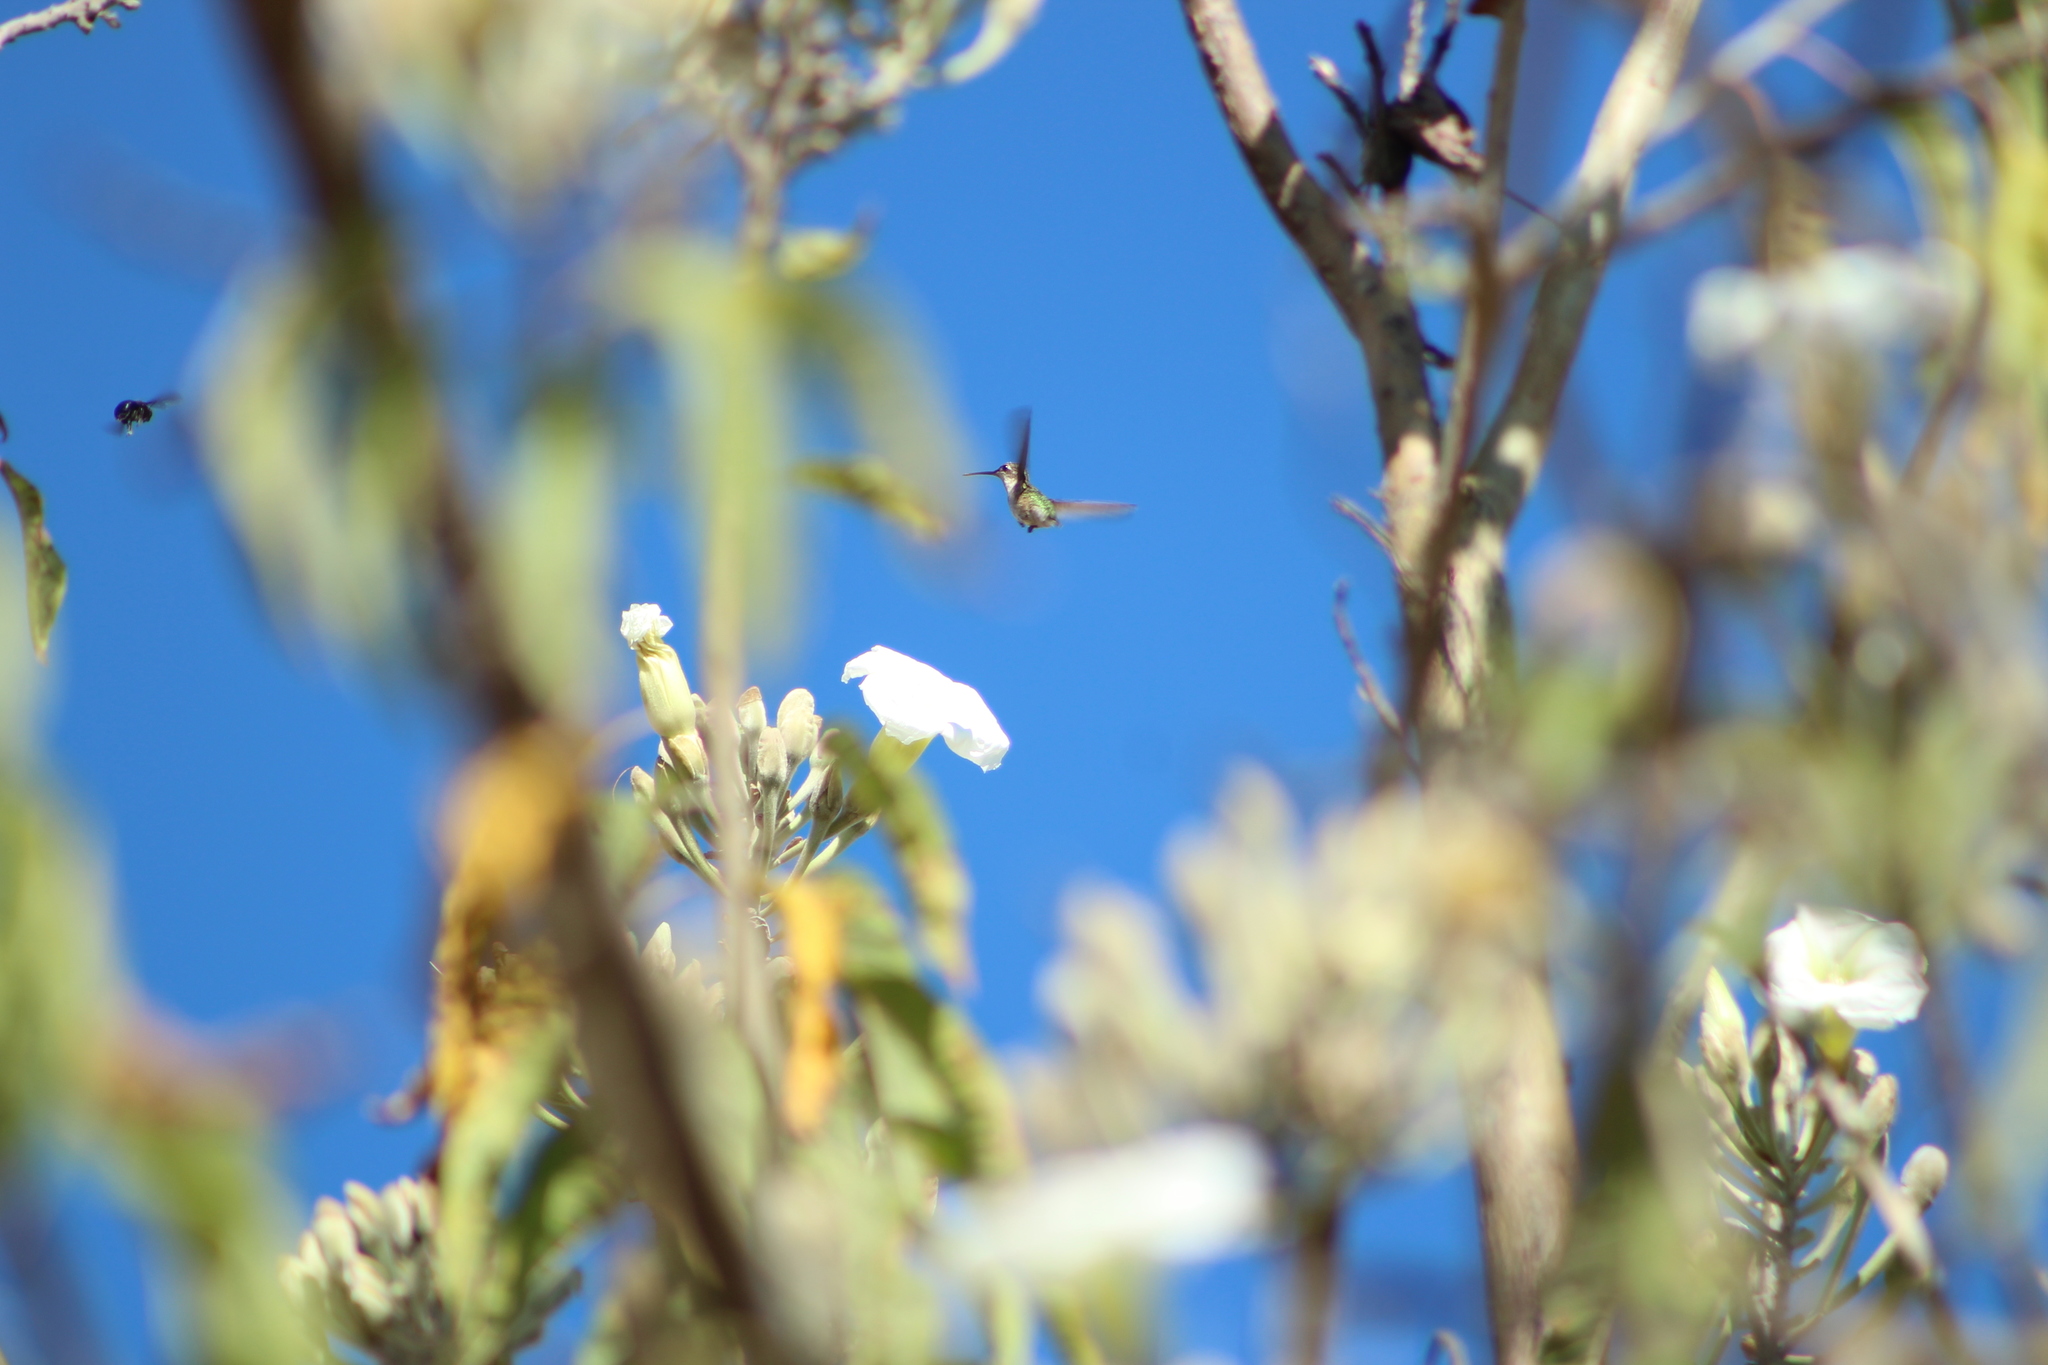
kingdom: Animalia
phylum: Chordata
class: Aves
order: Apodiformes
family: Trochilidae
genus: Archilochus
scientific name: Archilochus colubris
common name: Ruby-throated hummingbird
